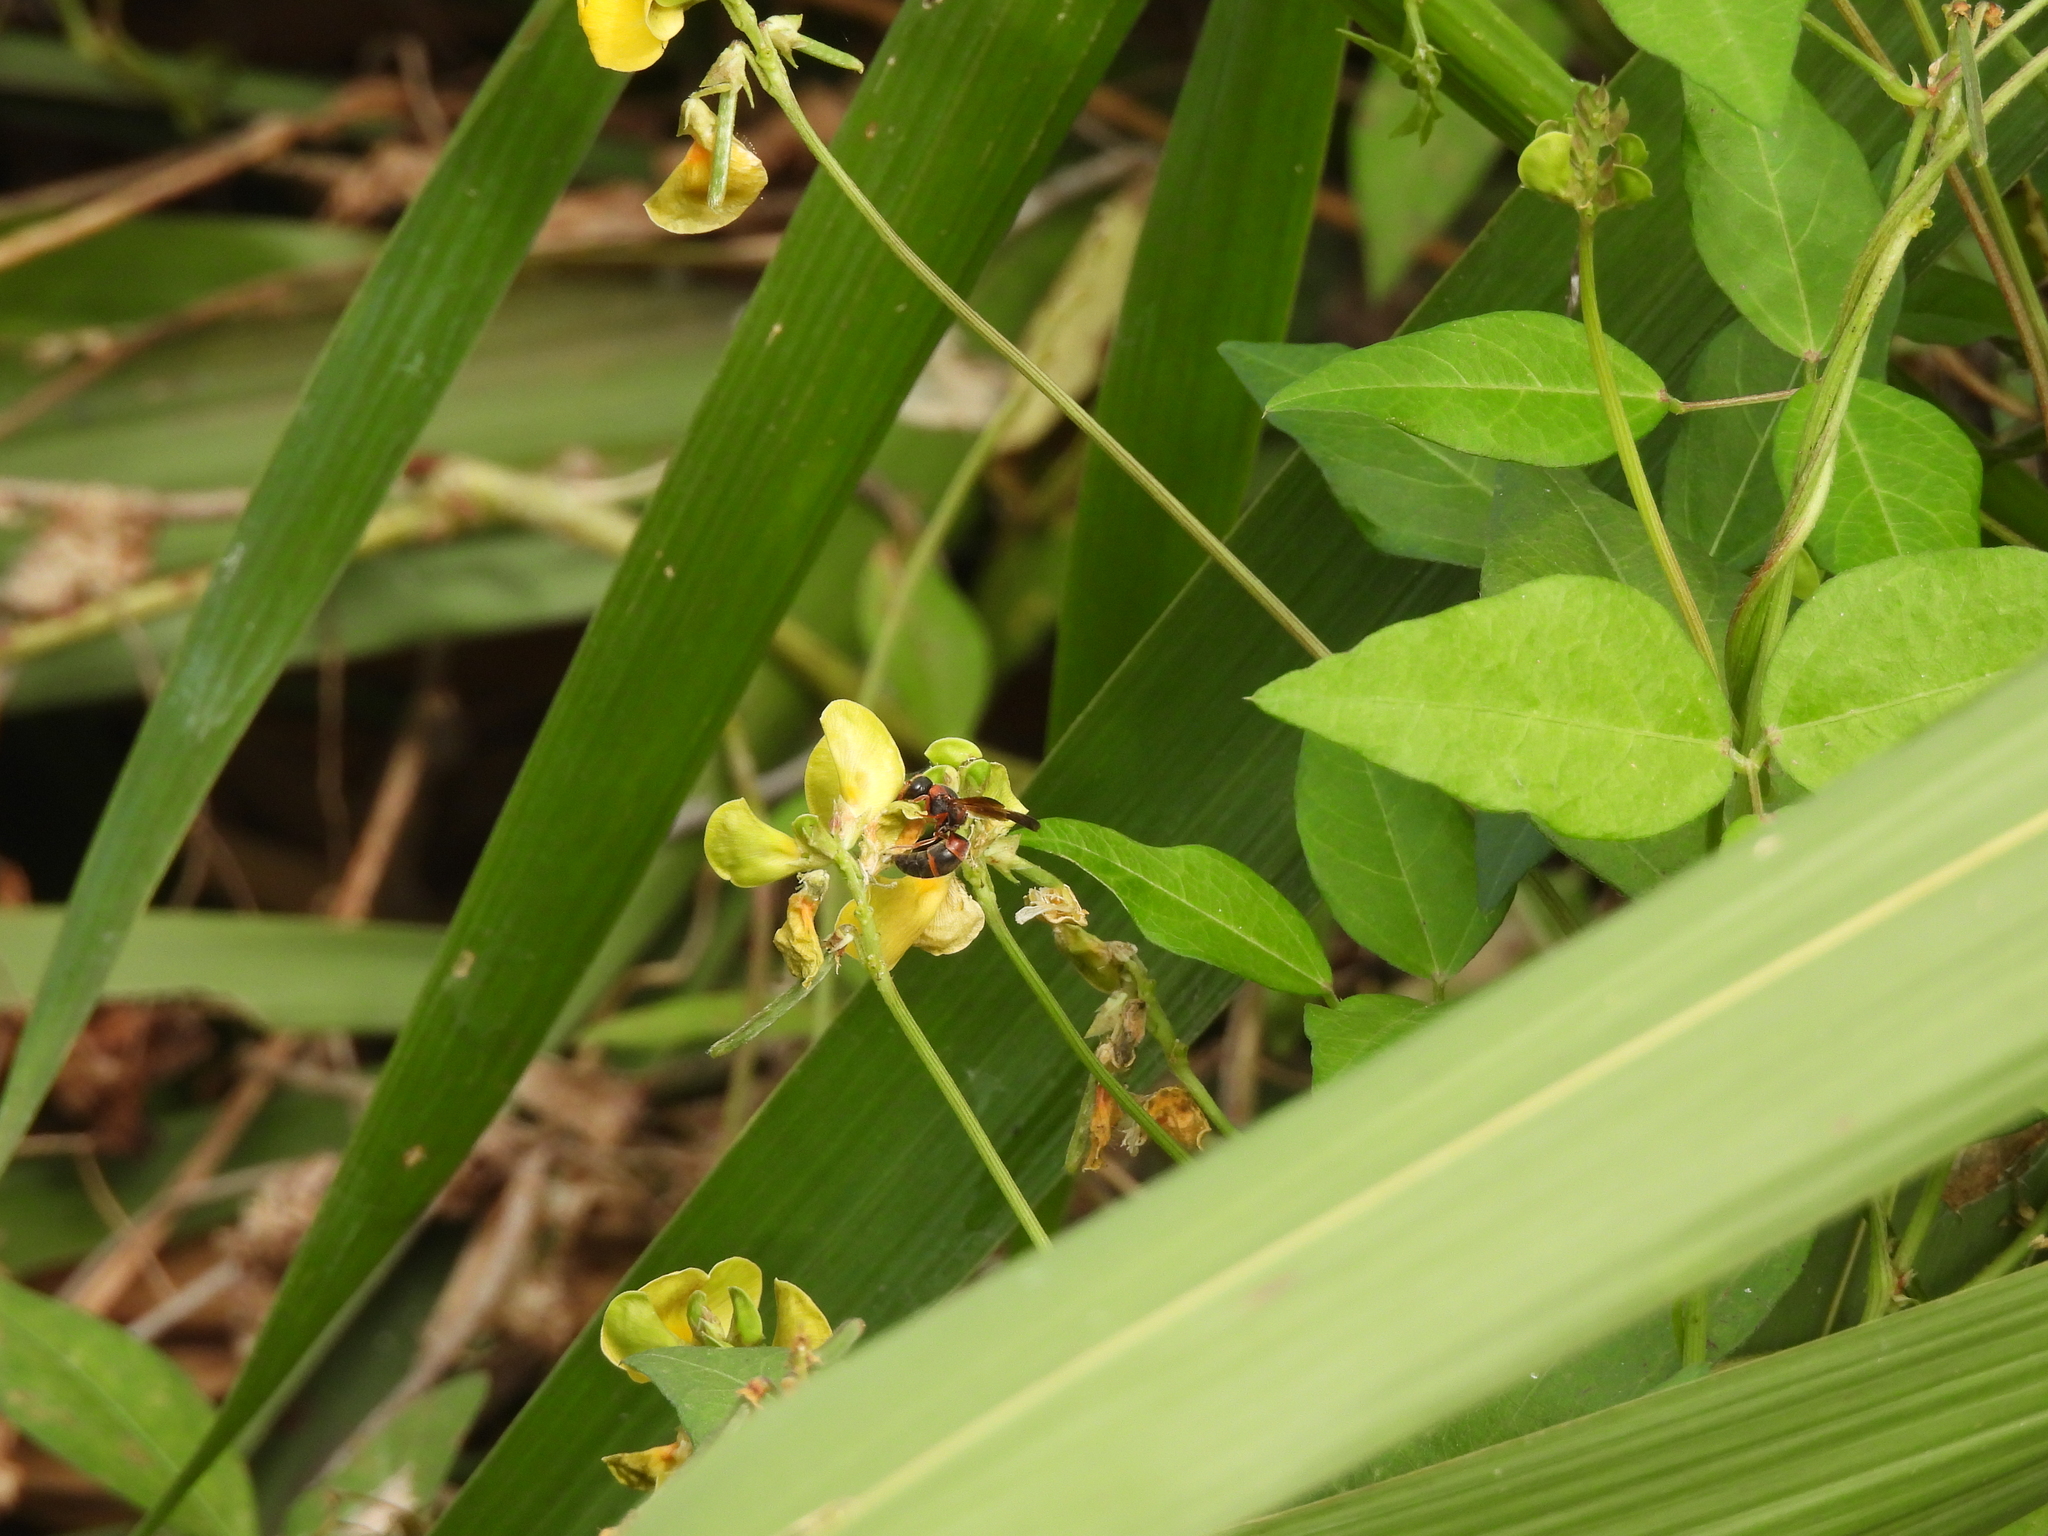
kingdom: Animalia
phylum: Arthropoda
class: Insecta
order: Hymenoptera
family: Eumenidae
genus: Pachodynerus
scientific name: Pachodynerus erynnis
